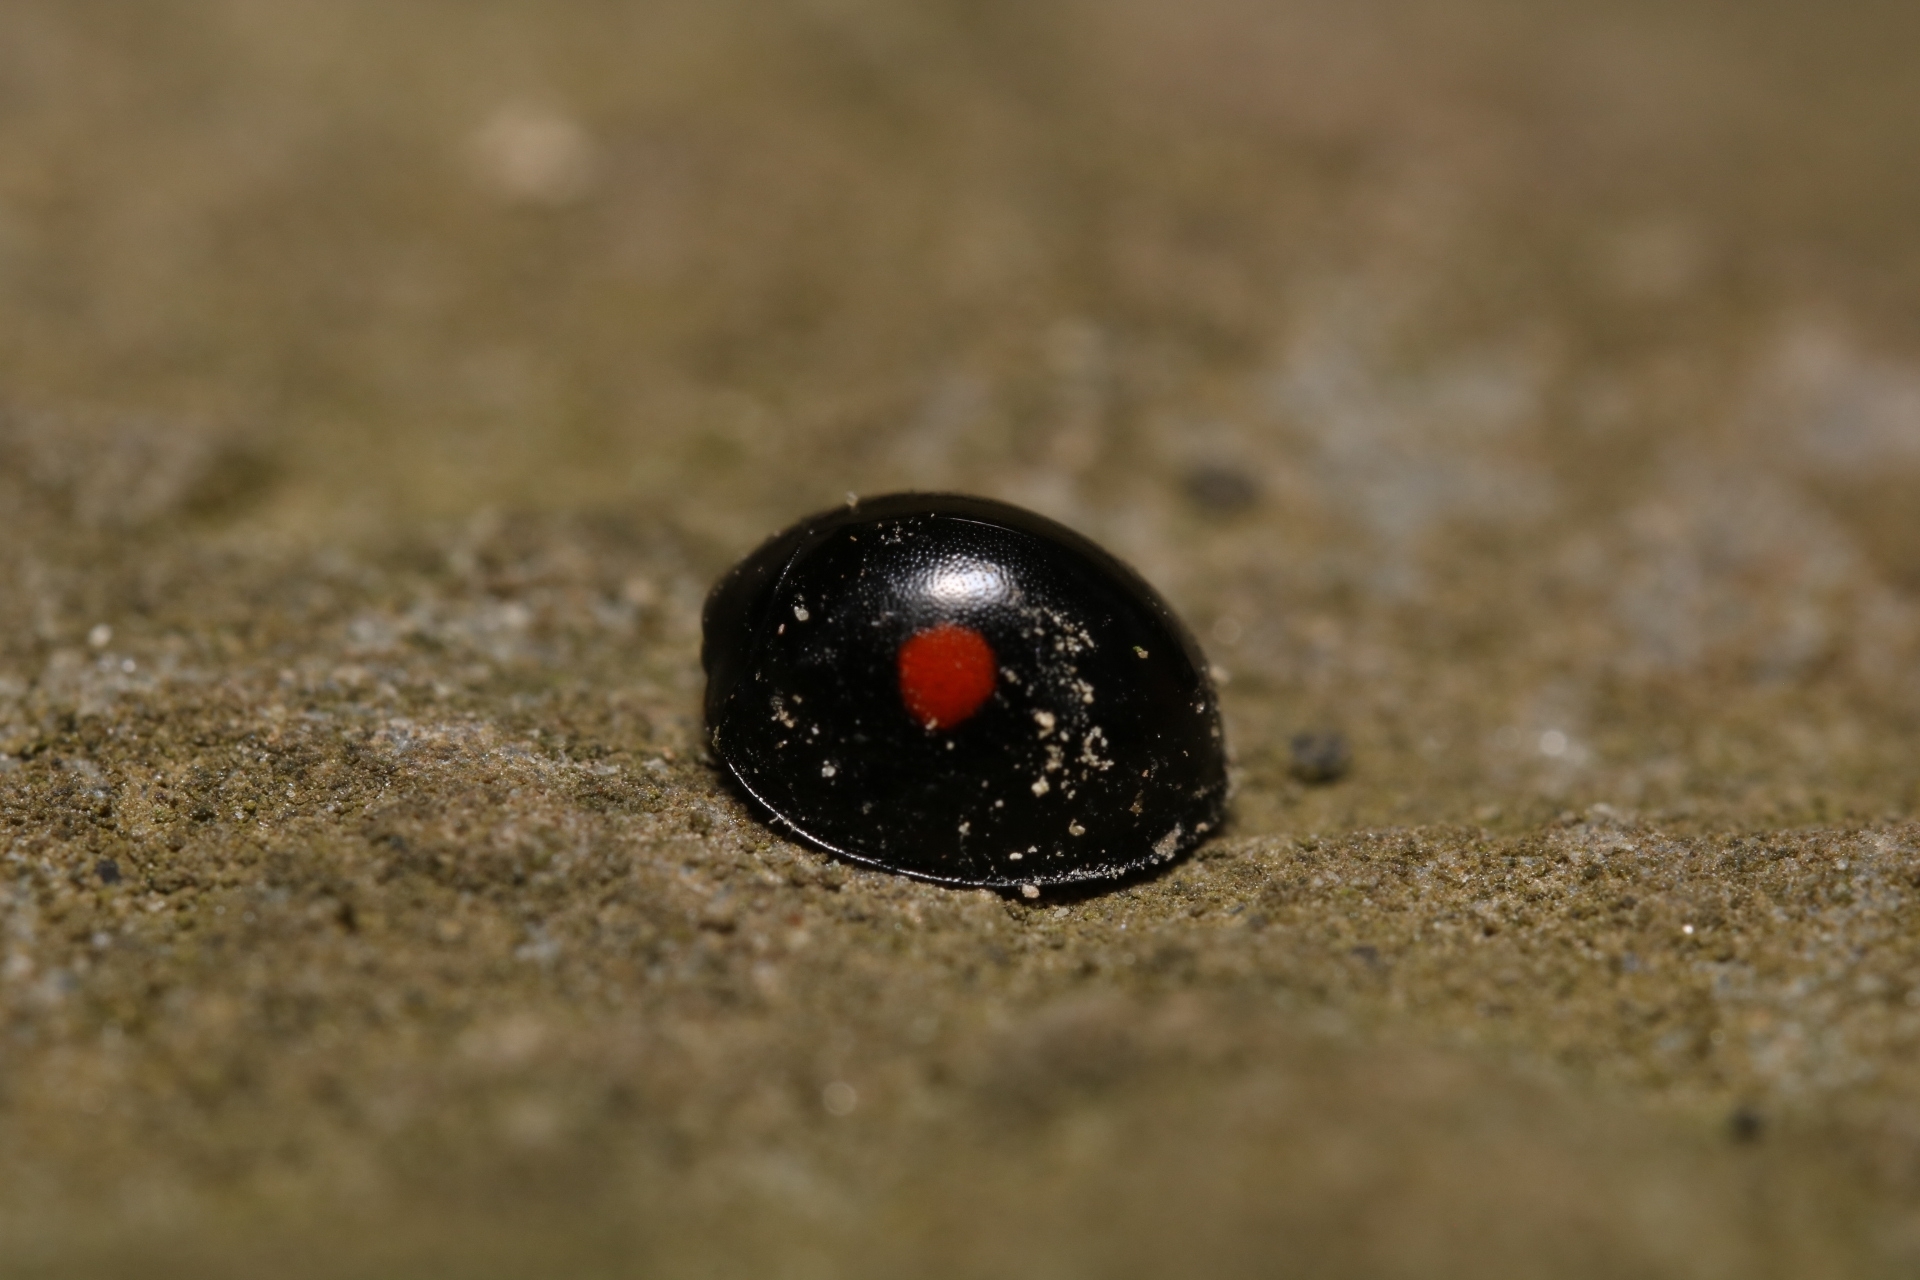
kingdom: Animalia
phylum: Arthropoda
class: Insecta
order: Coleoptera
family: Coccinellidae
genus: Chilocorus
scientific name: Chilocorus stigma
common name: Twicestabbed lady beetle
